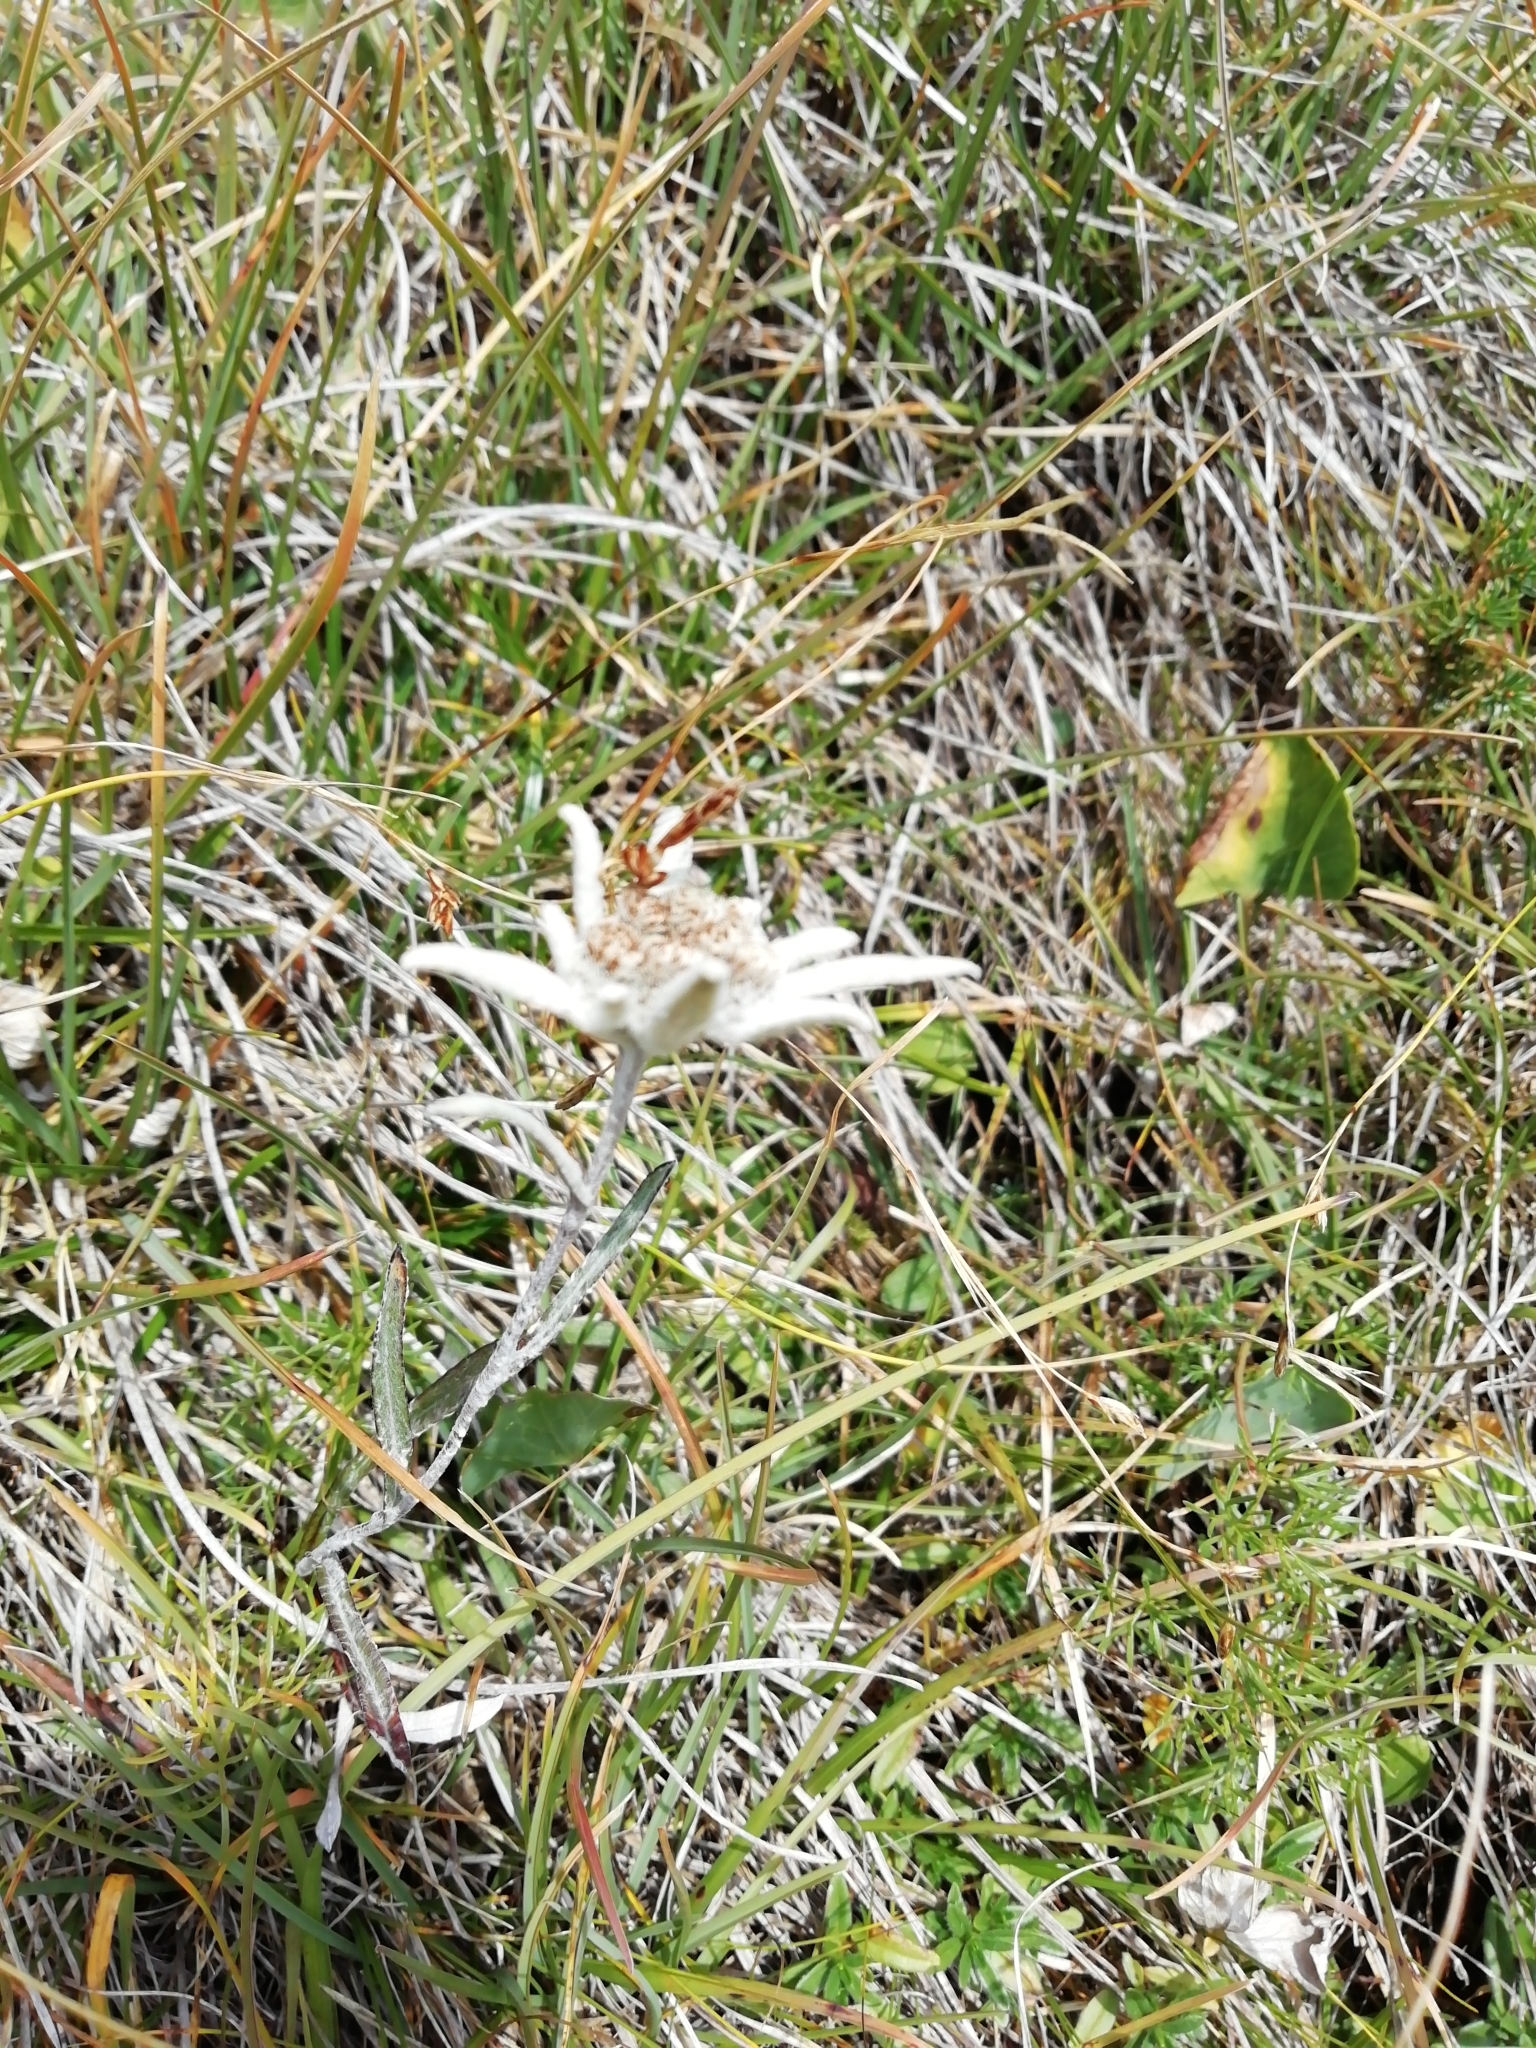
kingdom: Plantae
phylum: Tracheophyta
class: Magnoliopsida
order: Asterales
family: Asteraceae
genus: Leontopodium
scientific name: Leontopodium nivale
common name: Edelweiss
